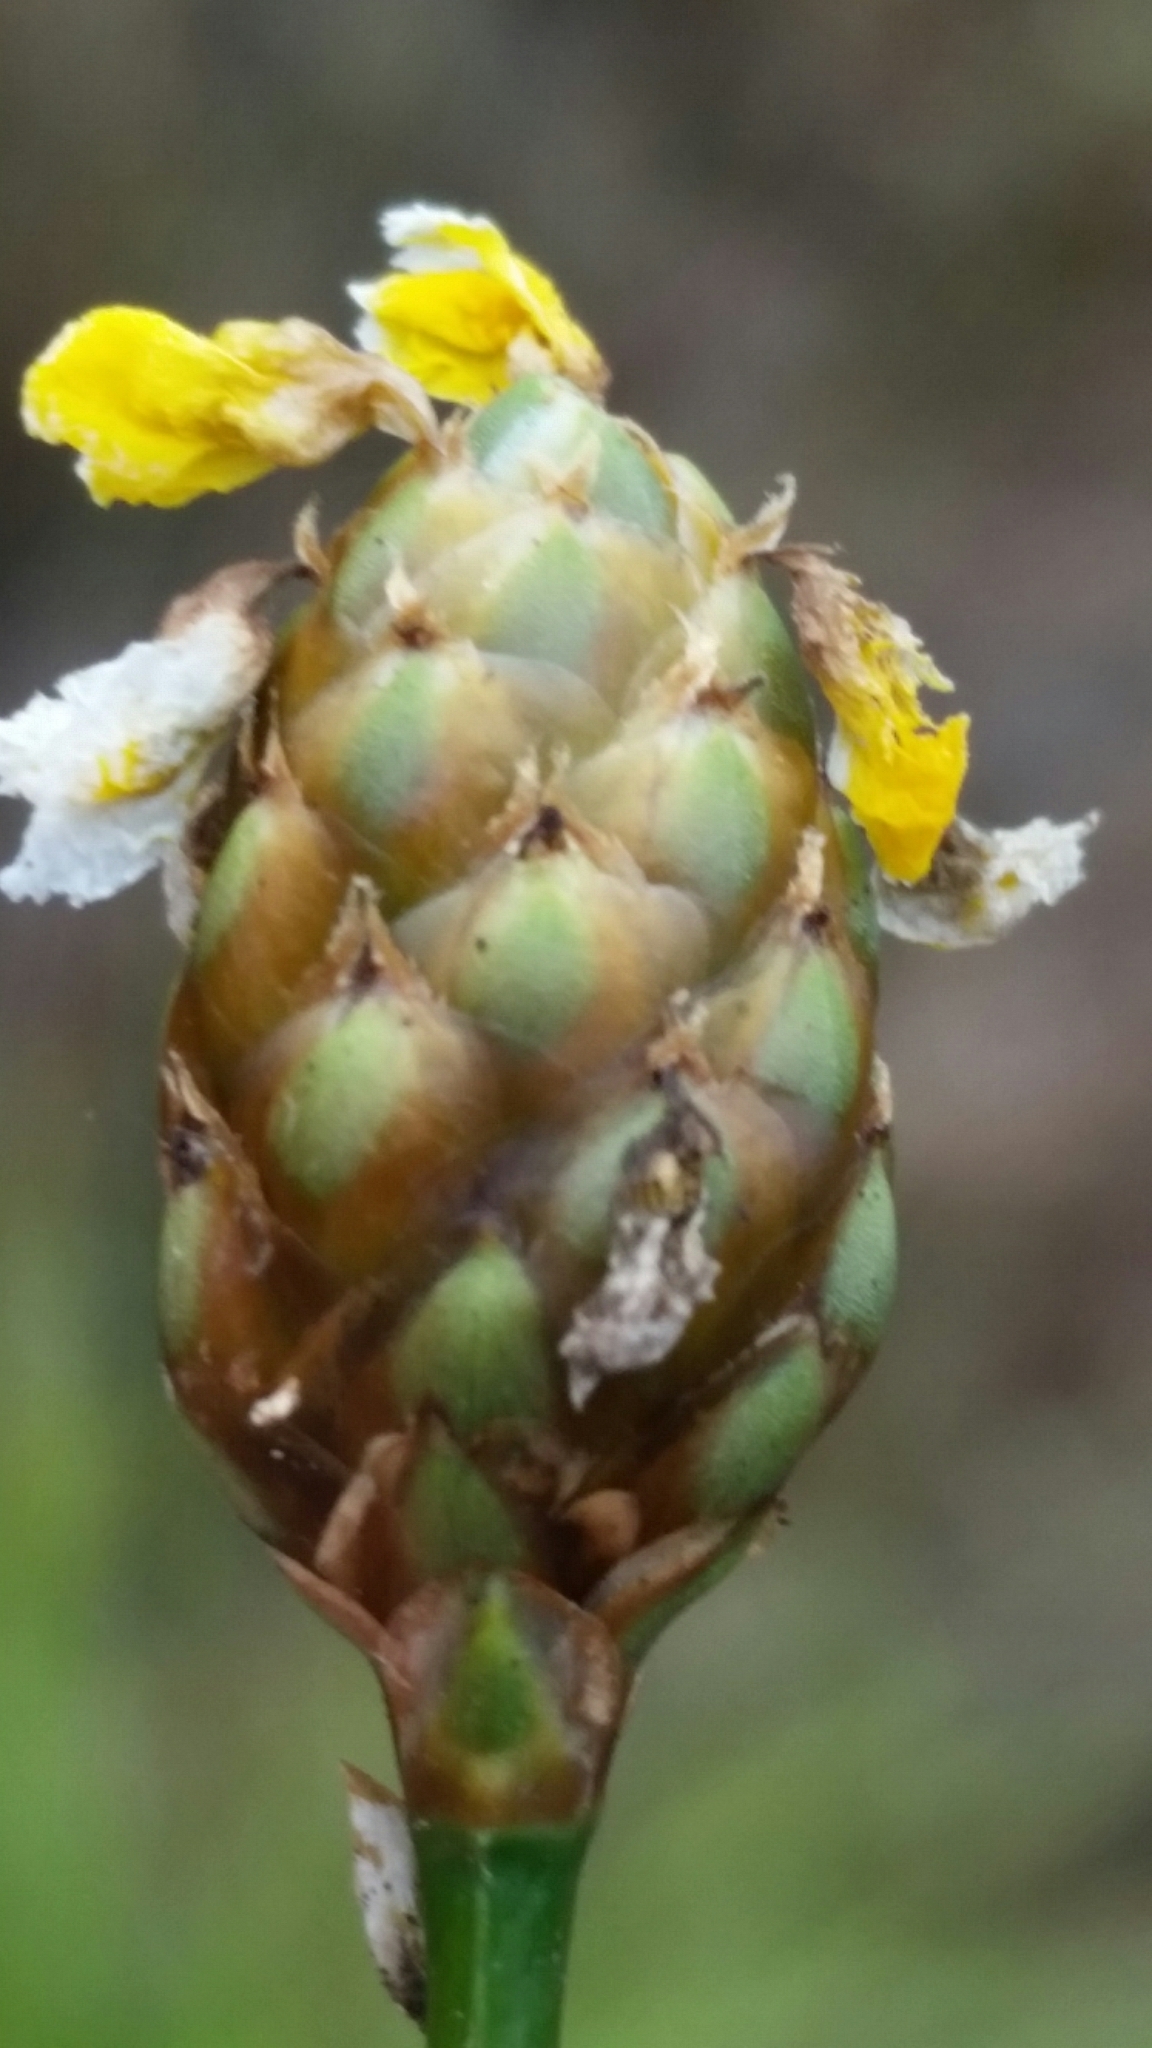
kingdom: Plantae
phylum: Tracheophyta
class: Liliopsida
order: Poales
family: Xyridaceae
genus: Xyris
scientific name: Xyris smalliana
